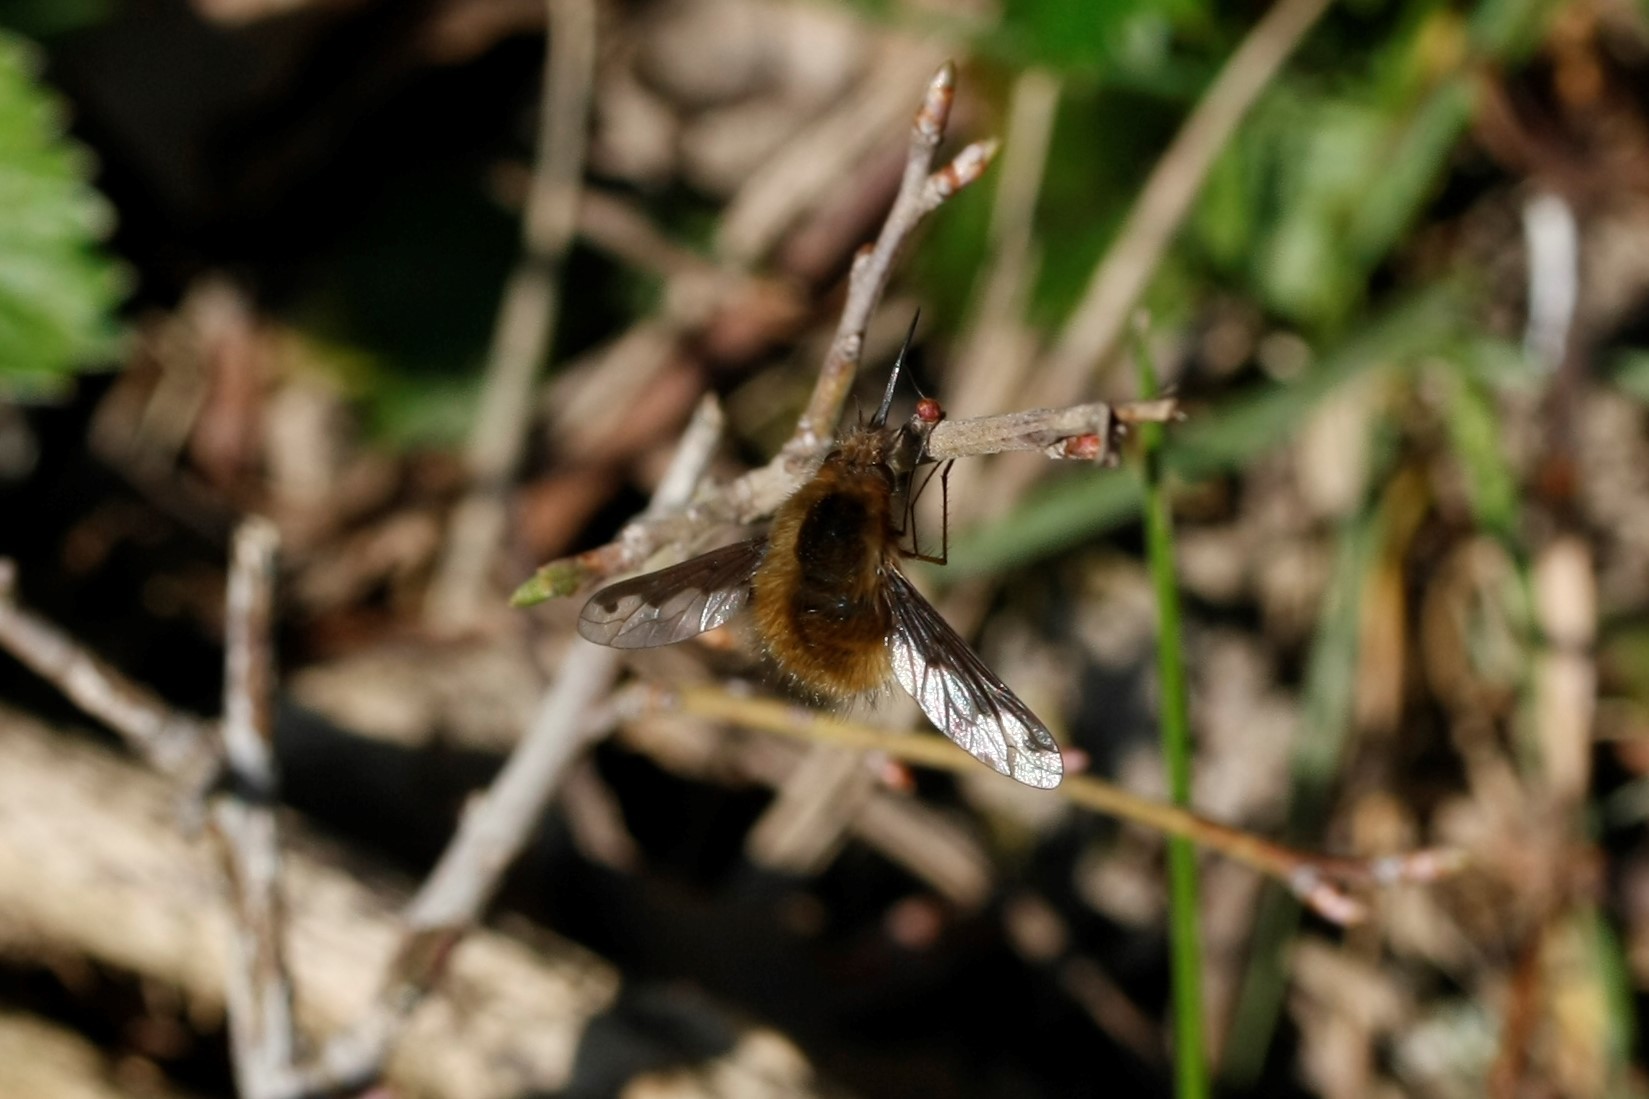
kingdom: Animalia
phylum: Arthropoda
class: Insecta
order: Diptera
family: Bombyliidae
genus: Bombylius
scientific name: Bombylius major
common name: Bee fly
